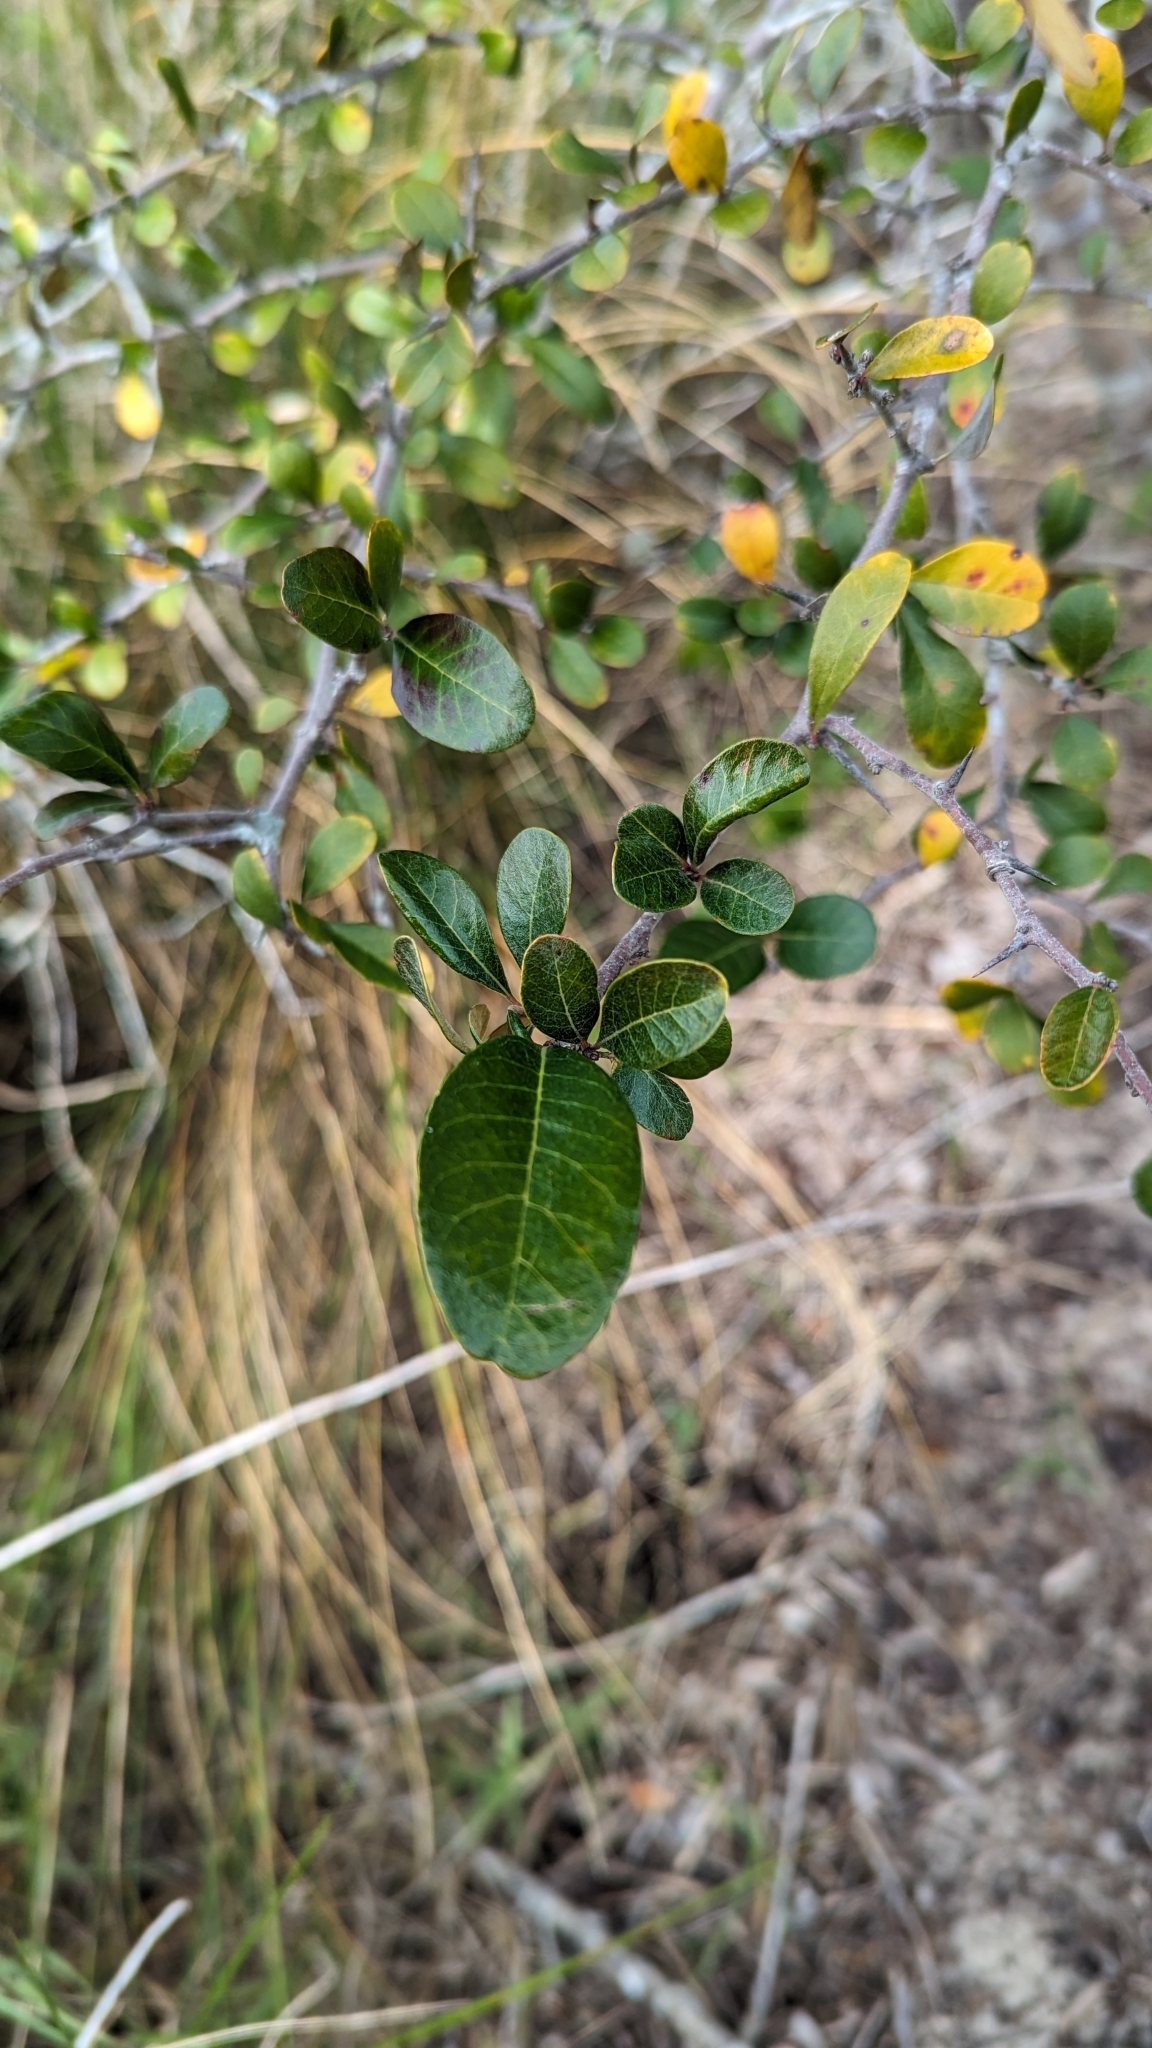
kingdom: Plantae
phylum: Tracheophyta
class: Magnoliopsida
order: Ericales
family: Sapotaceae
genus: Sideroxylon
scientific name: Sideroxylon tenax
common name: Tough-buckthorn
